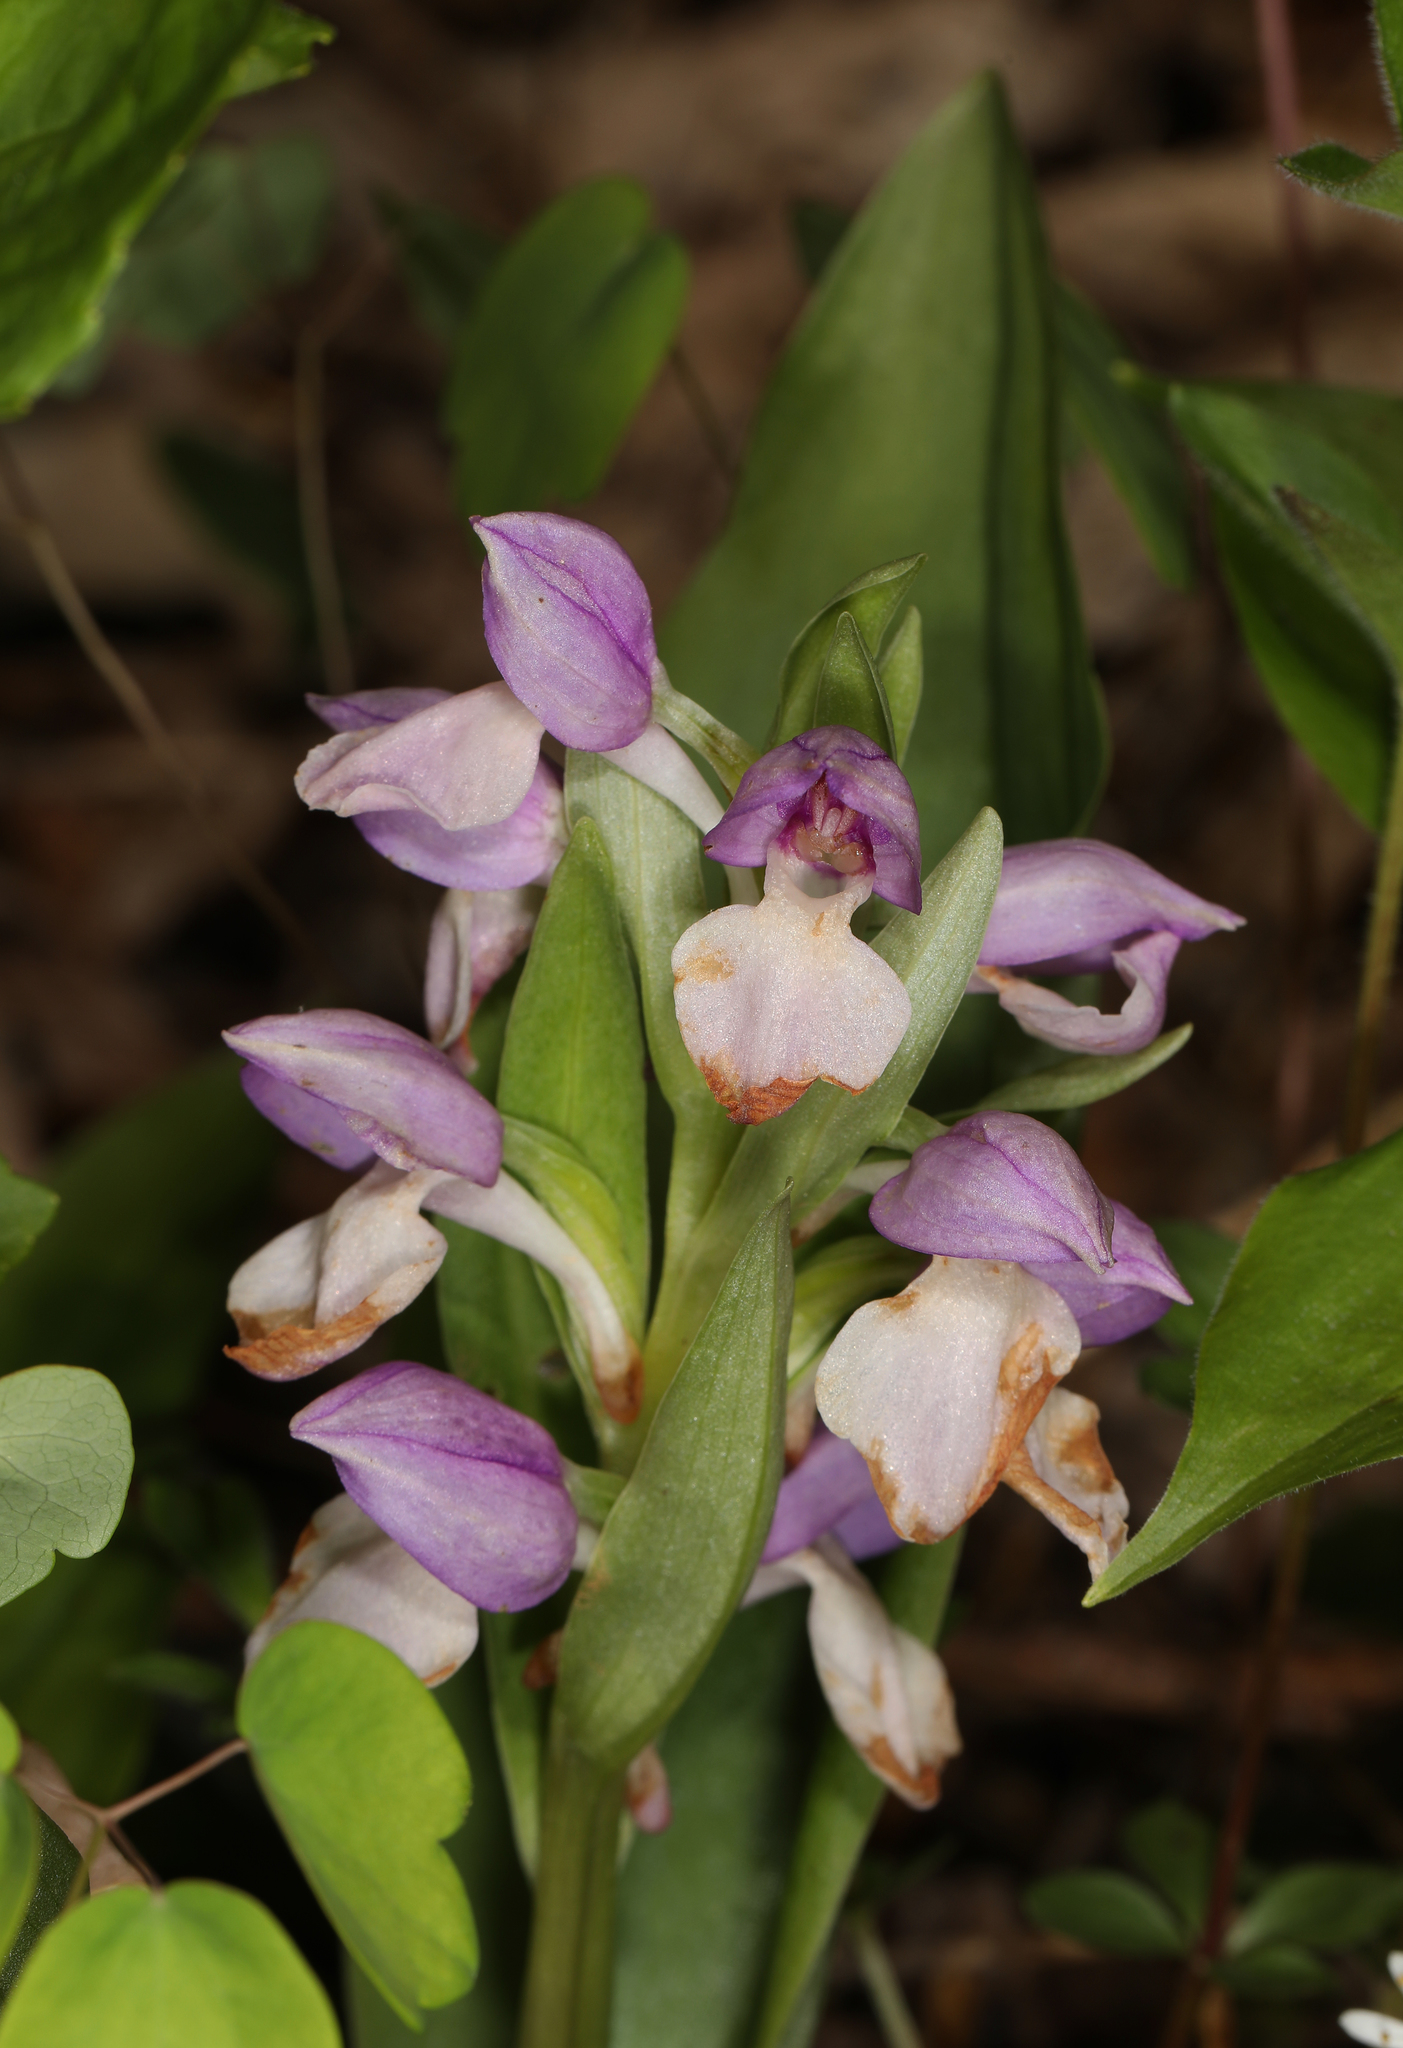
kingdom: Plantae
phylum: Tracheophyta
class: Liliopsida
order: Asparagales
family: Orchidaceae
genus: Galearis
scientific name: Galearis spectabilis
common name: Purple-hooded orchis
